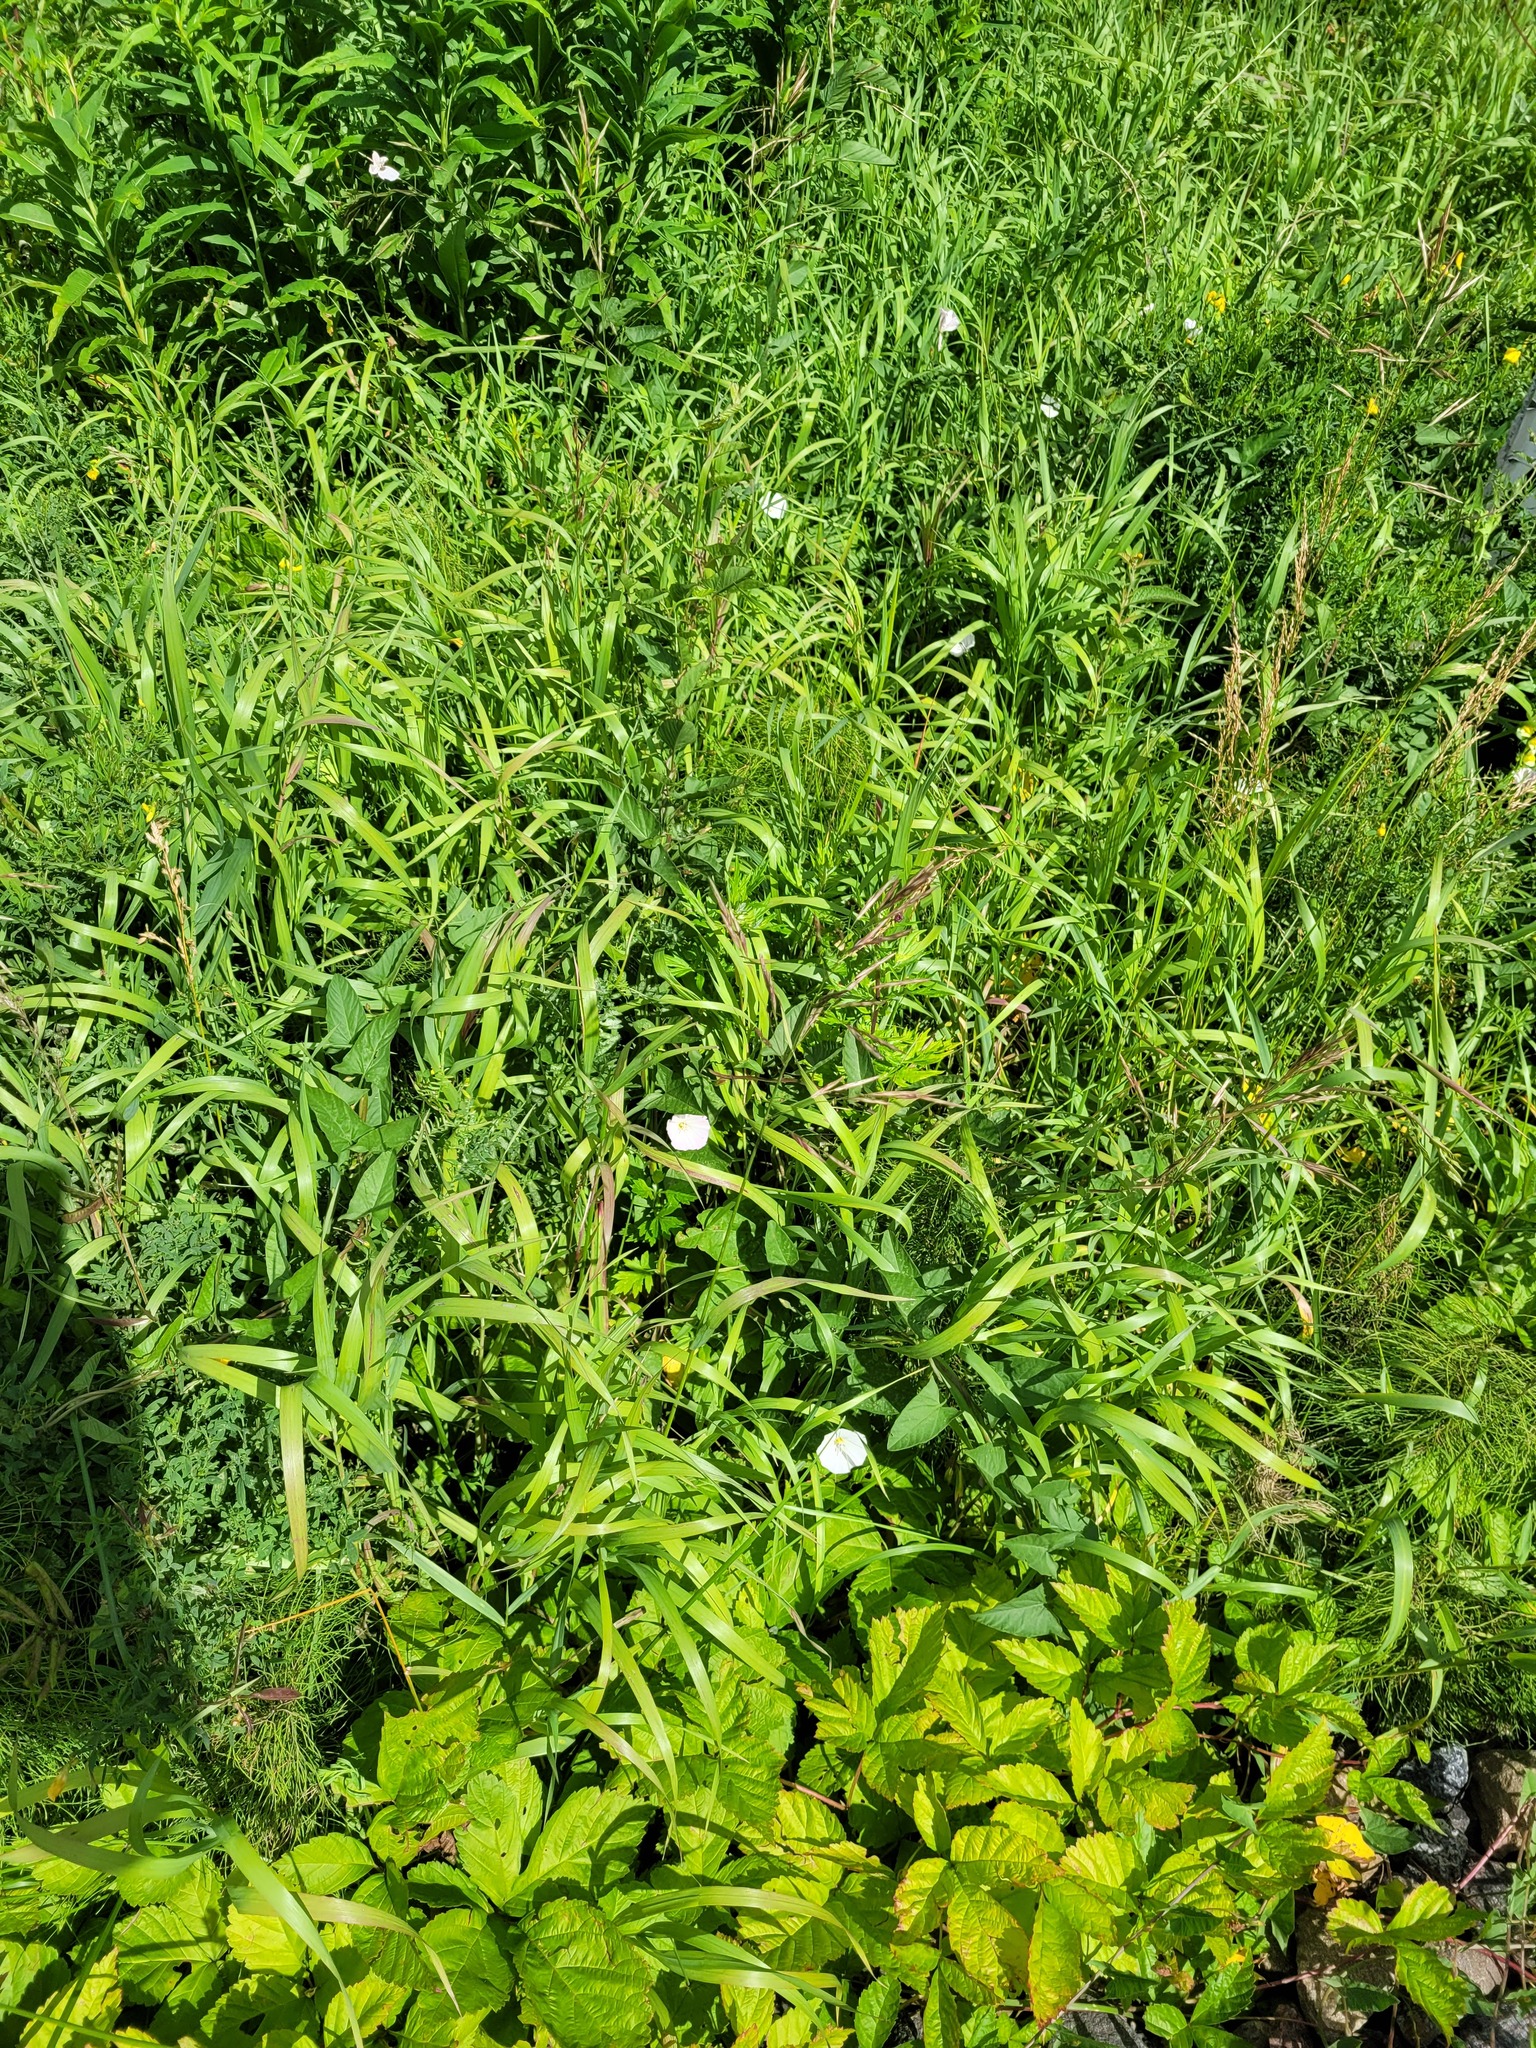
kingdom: Plantae
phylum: Tracheophyta
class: Liliopsida
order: Poales
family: Poaceae
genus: Bromus
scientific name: Bromus inermis
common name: Smooth brome
